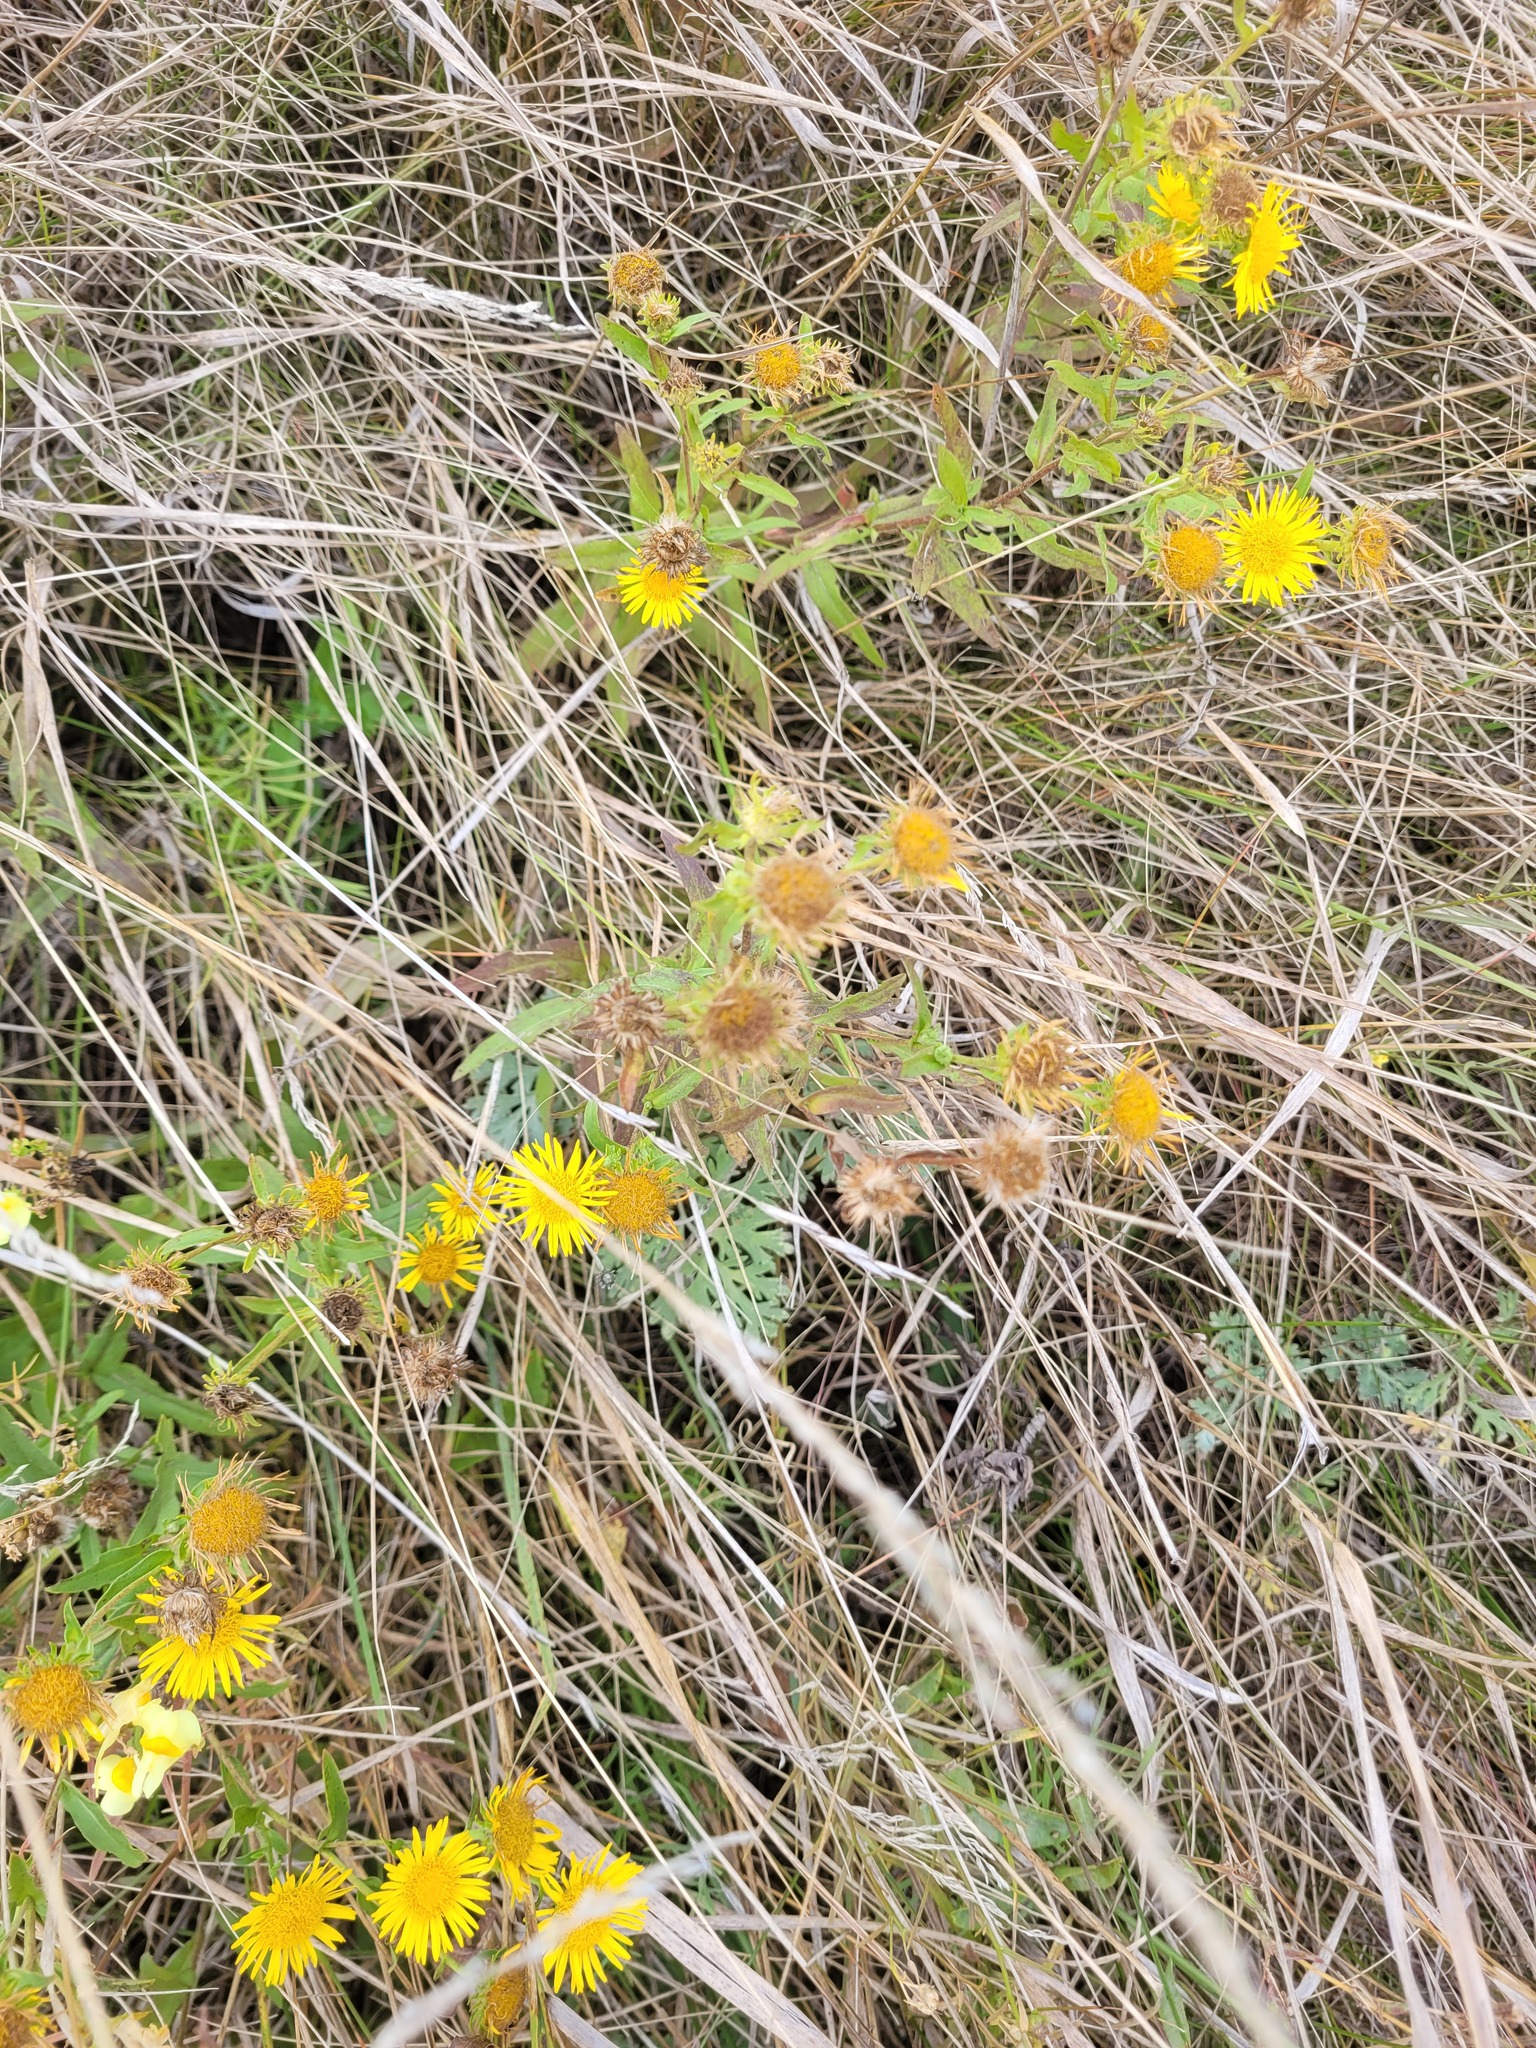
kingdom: Plantae
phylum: Tracheophyta
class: Magnoliopsida
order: Asterales
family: Asteraceae
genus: Pentanema
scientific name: Pentanema britannicum
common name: British elecampane
